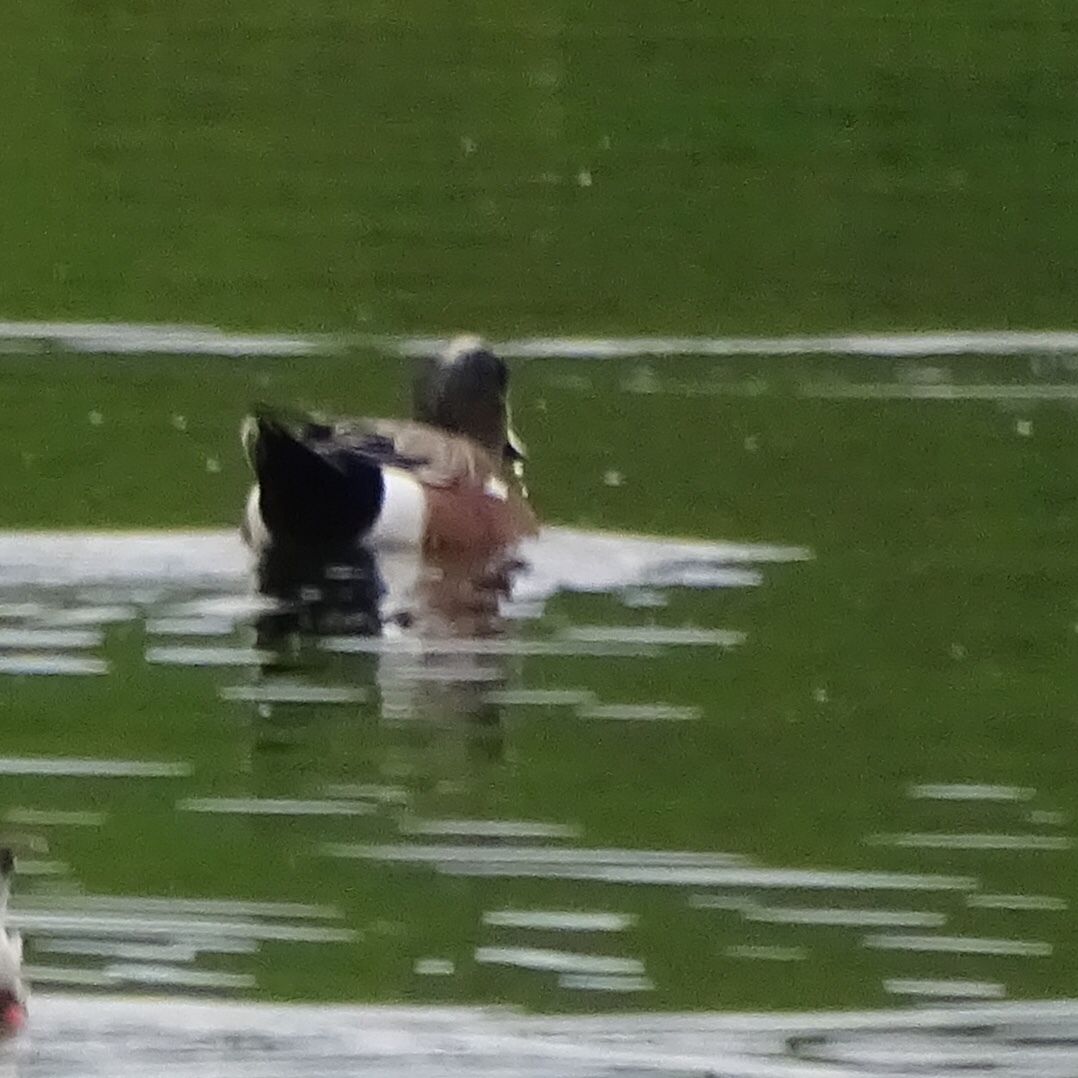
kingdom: Animalia
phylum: Chordata
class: Aves
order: Anseriformes
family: Anatidae
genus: Mareca
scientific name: Mareca americana
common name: American wigeon
